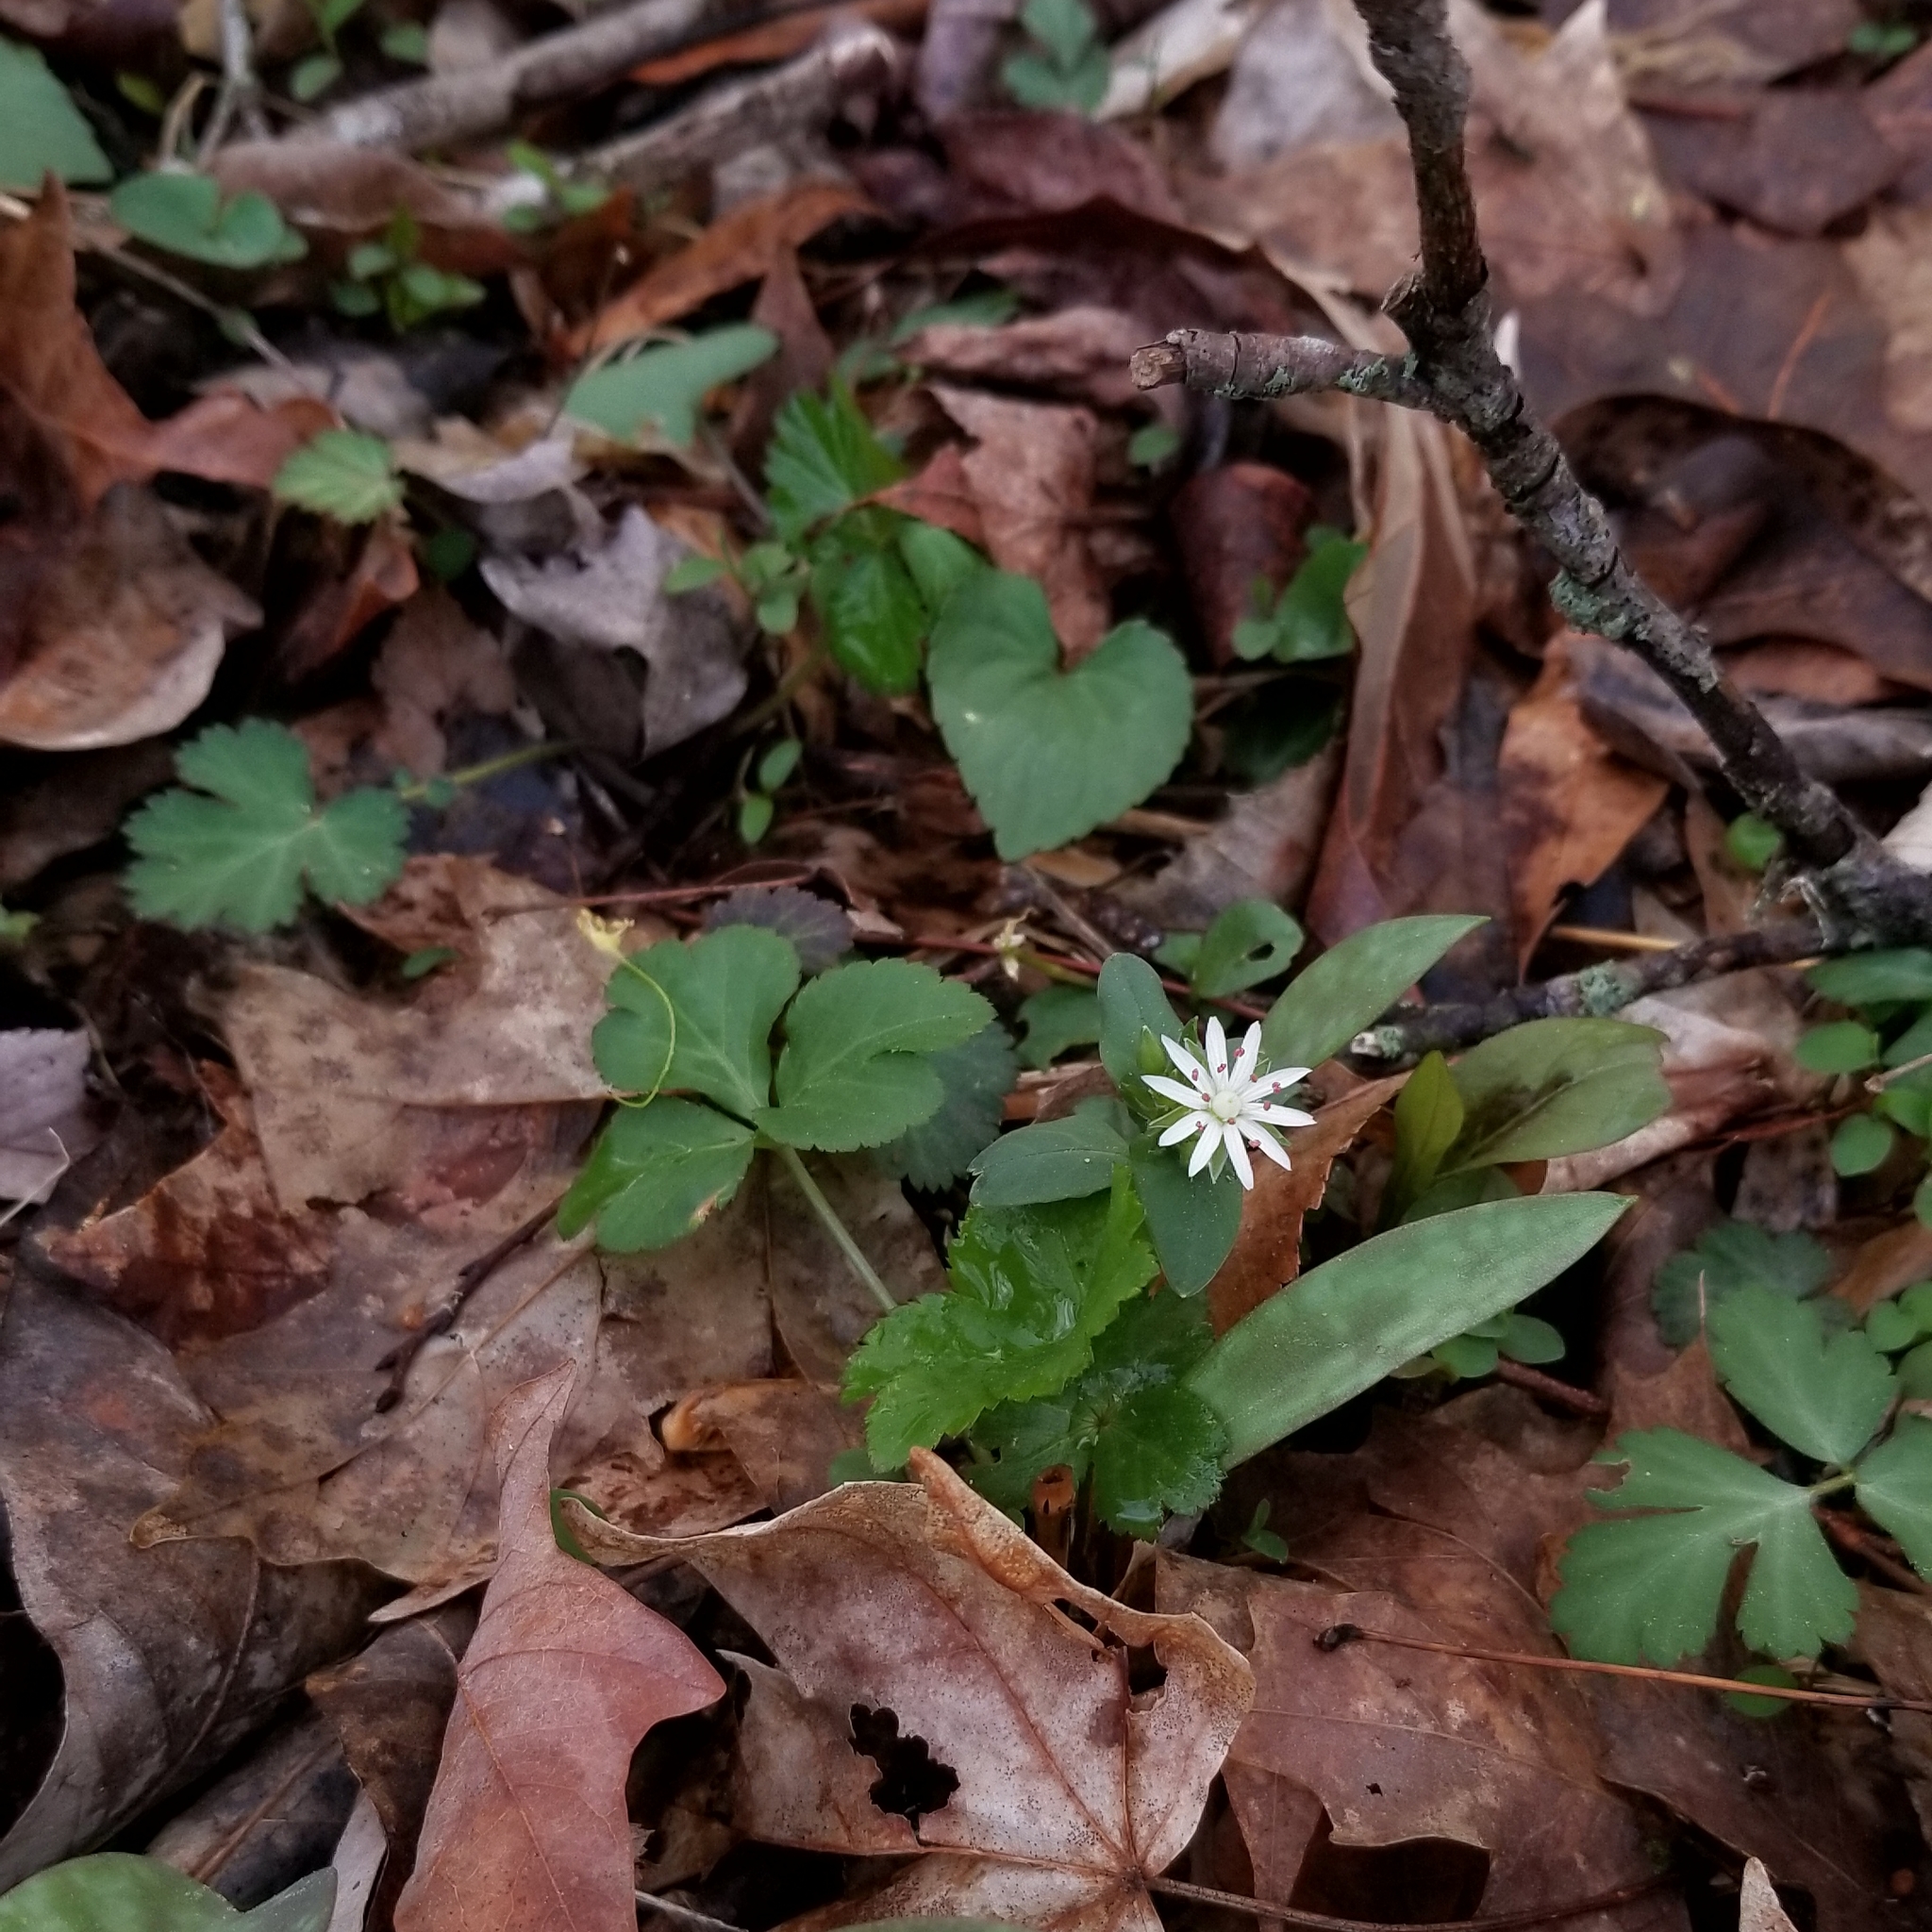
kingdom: Plantae
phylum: Tracheophyta
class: Magnoliopsida
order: Caryophyllales
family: Caryophyllaceae
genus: Stellaria
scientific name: Stellaria pubera
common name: Star chickweed
